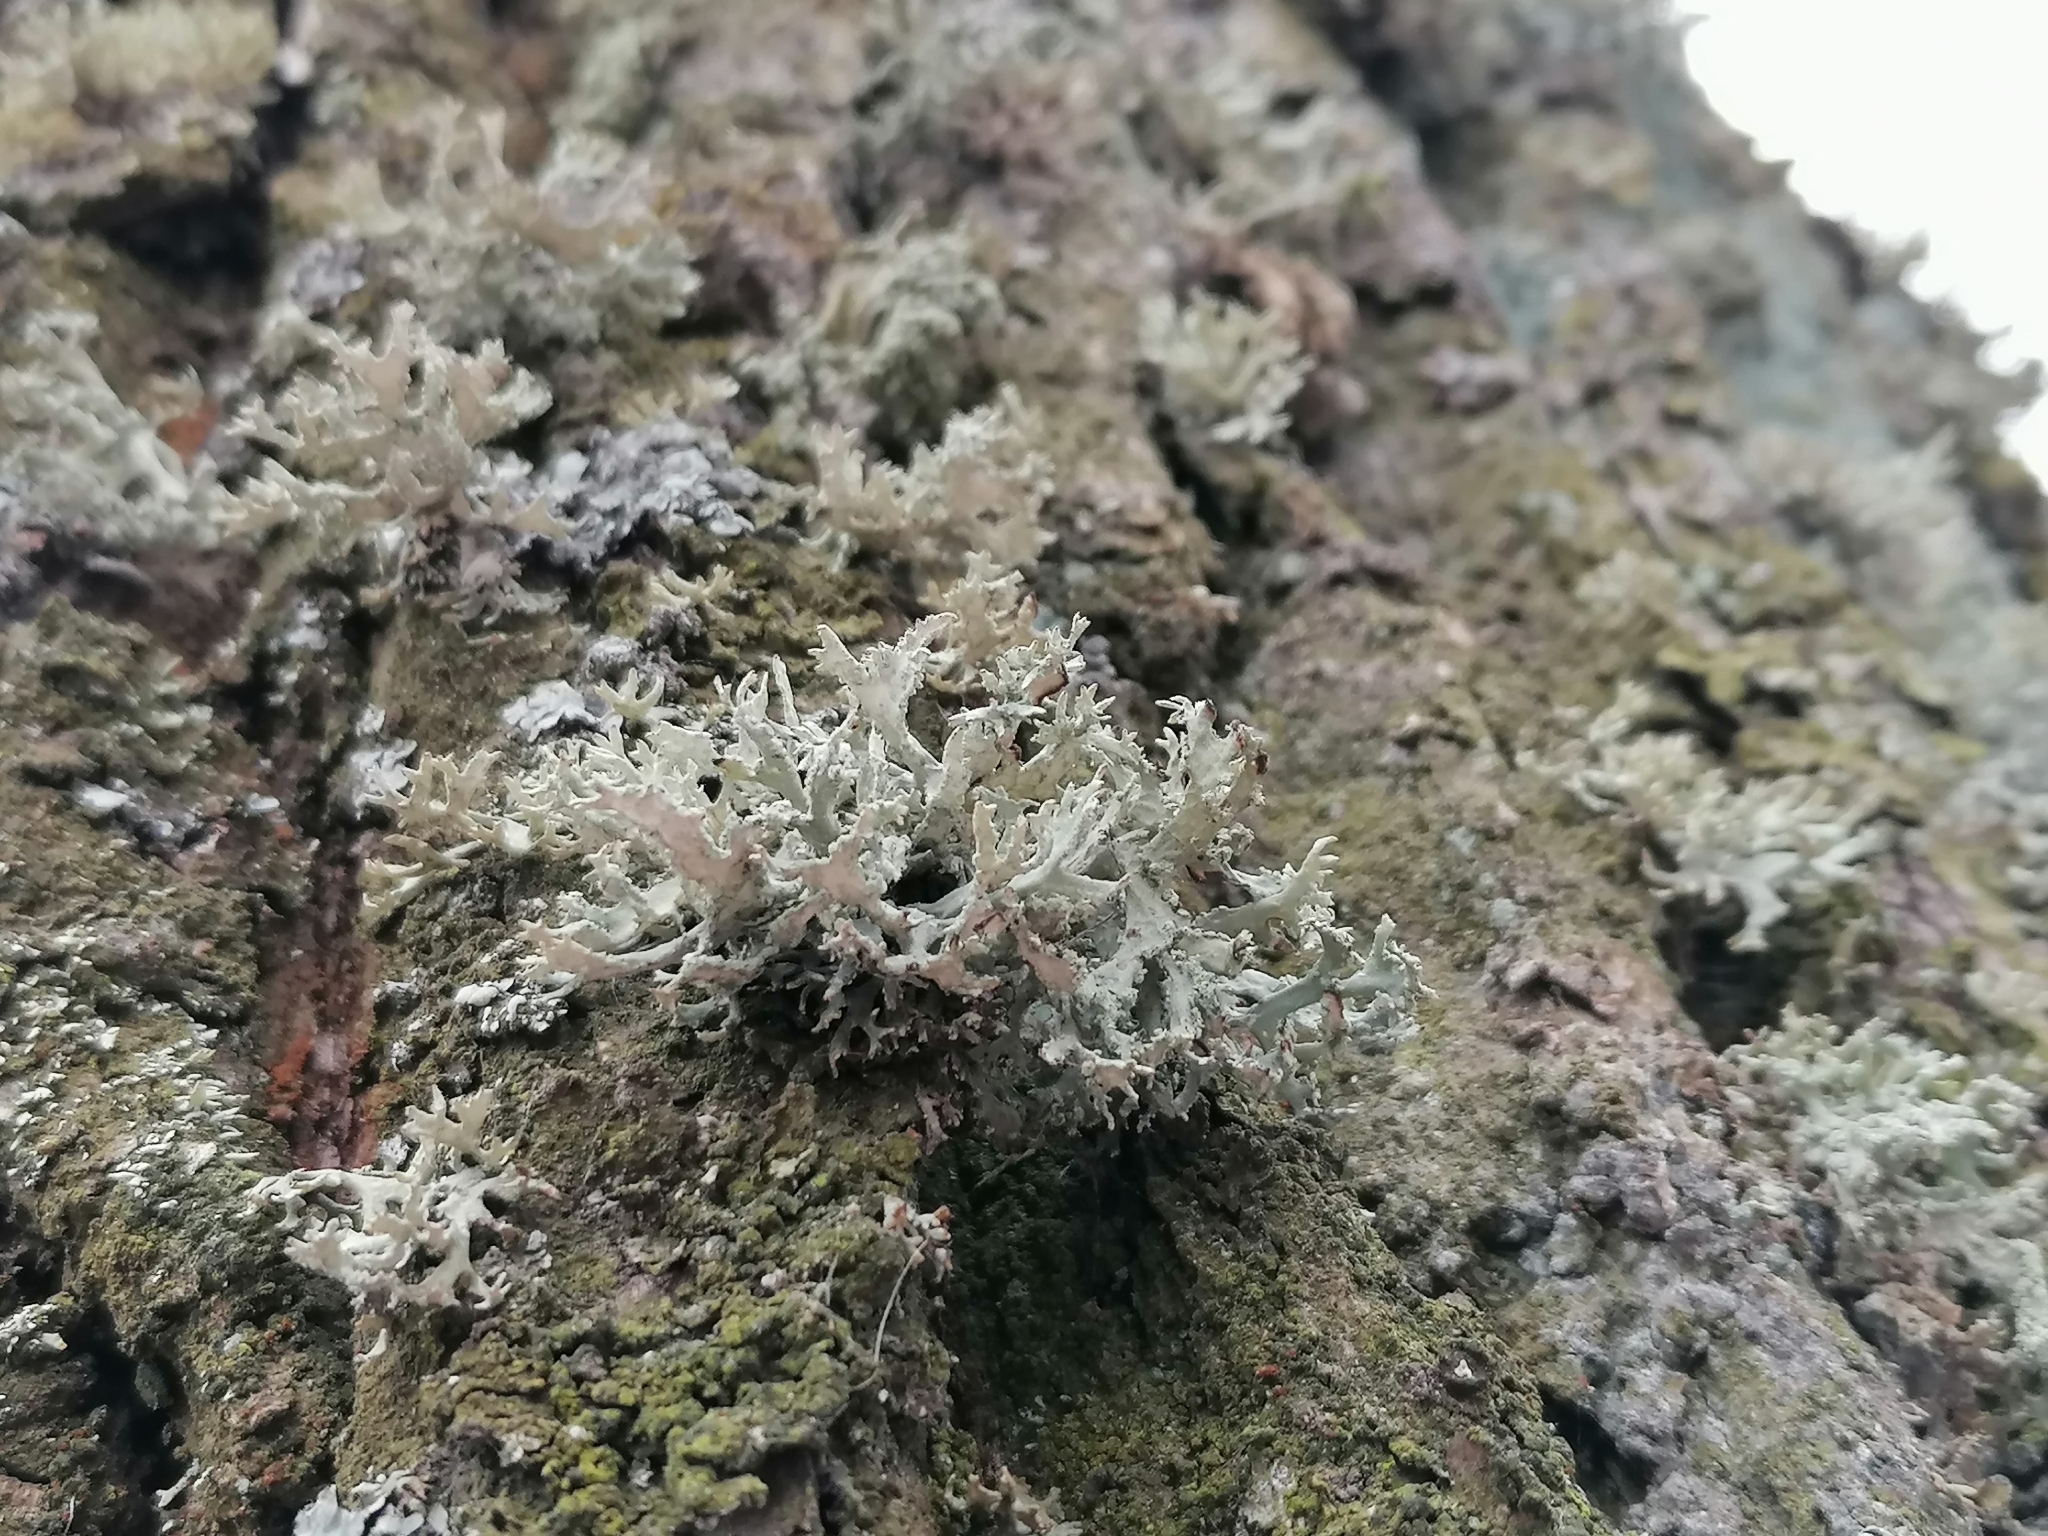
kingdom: Fungi
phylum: Ascomycota
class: Lecanoromycetes
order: Lecanorales
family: Parmeliaceae
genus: Evernia
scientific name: Evernia prunastri
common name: Oak moss
